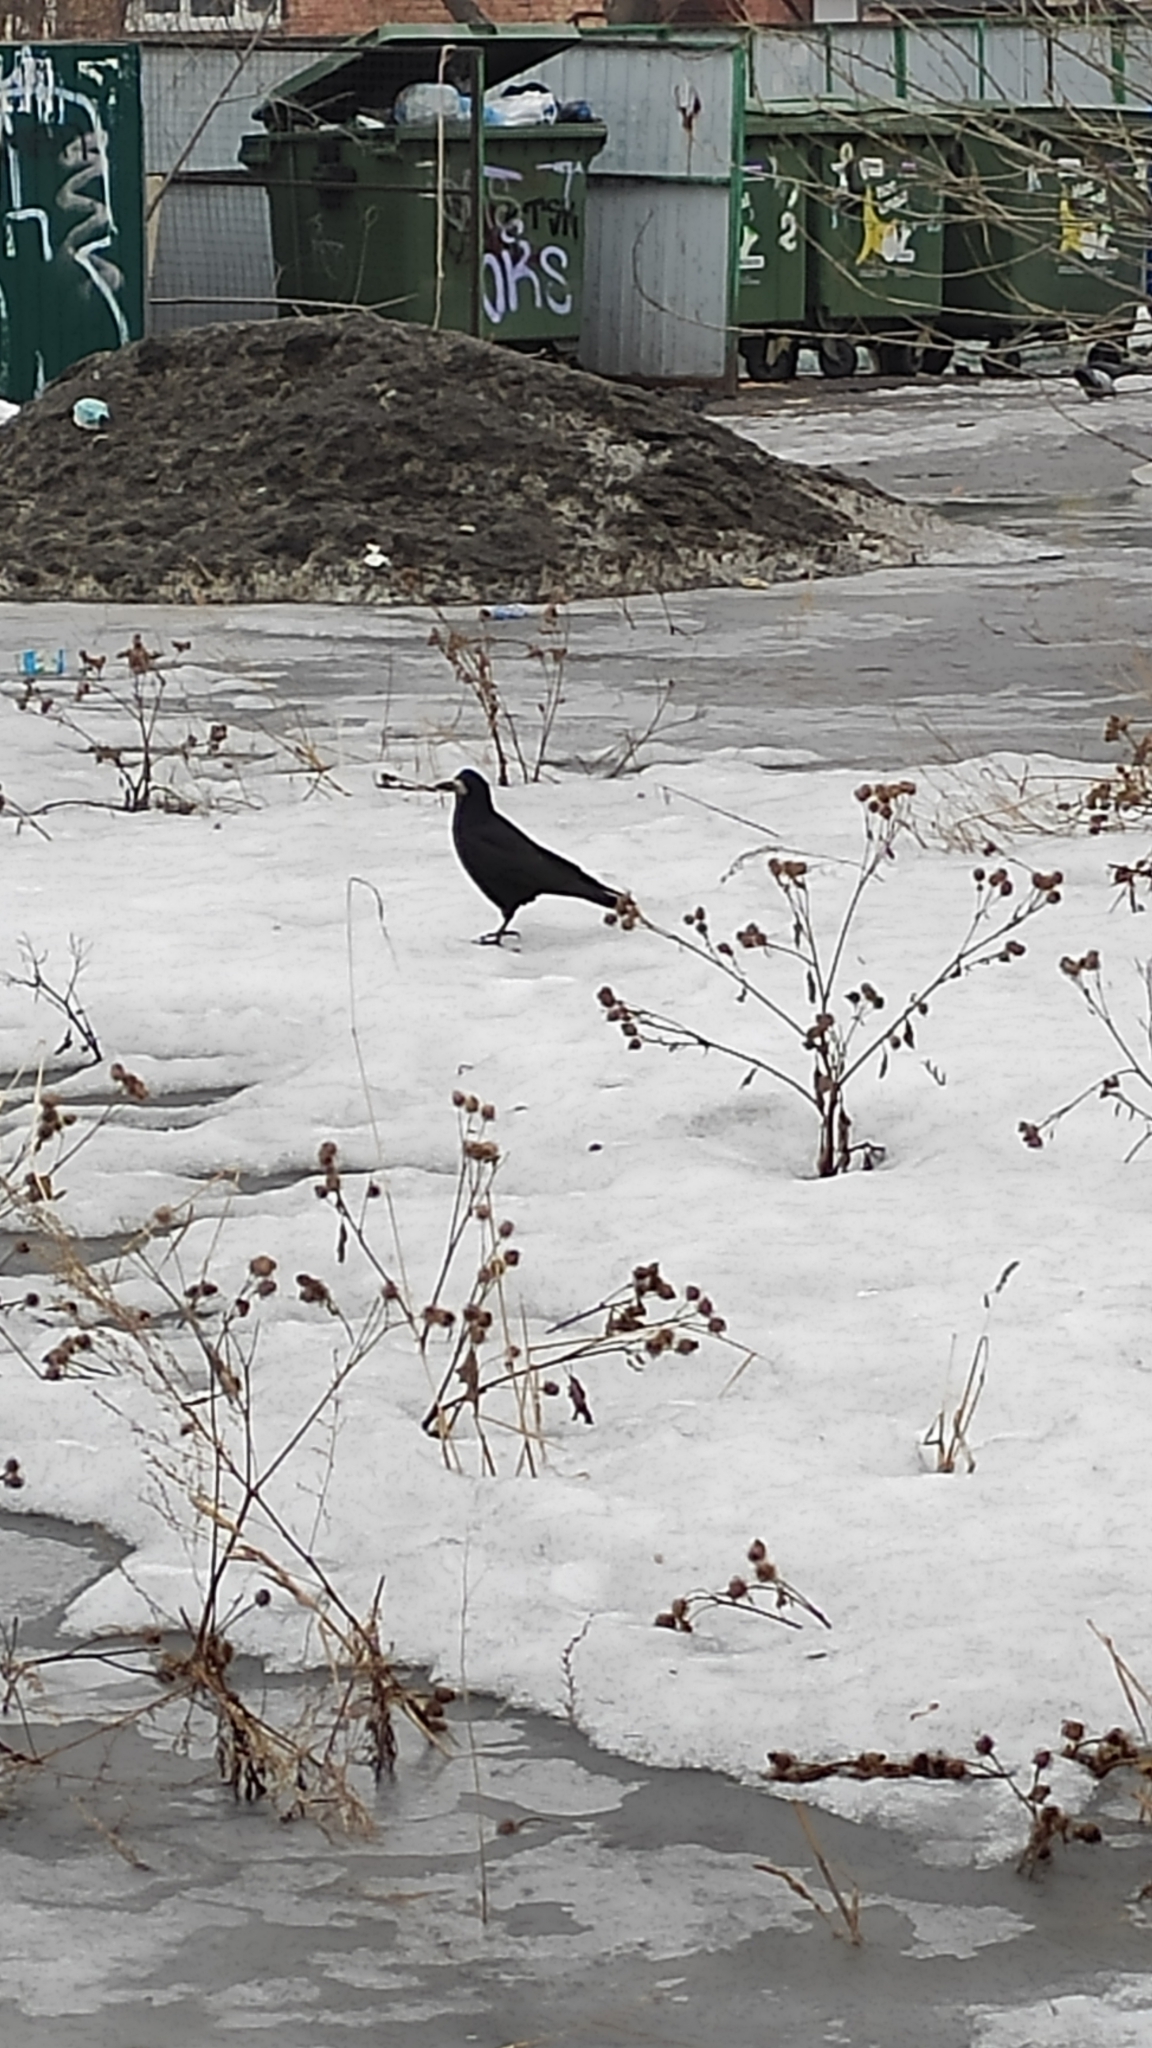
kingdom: Animalia
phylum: Chordata
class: Aves
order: Passeriformes
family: Corvidae
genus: Corvus
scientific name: Corvus frugilegus
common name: Rook
